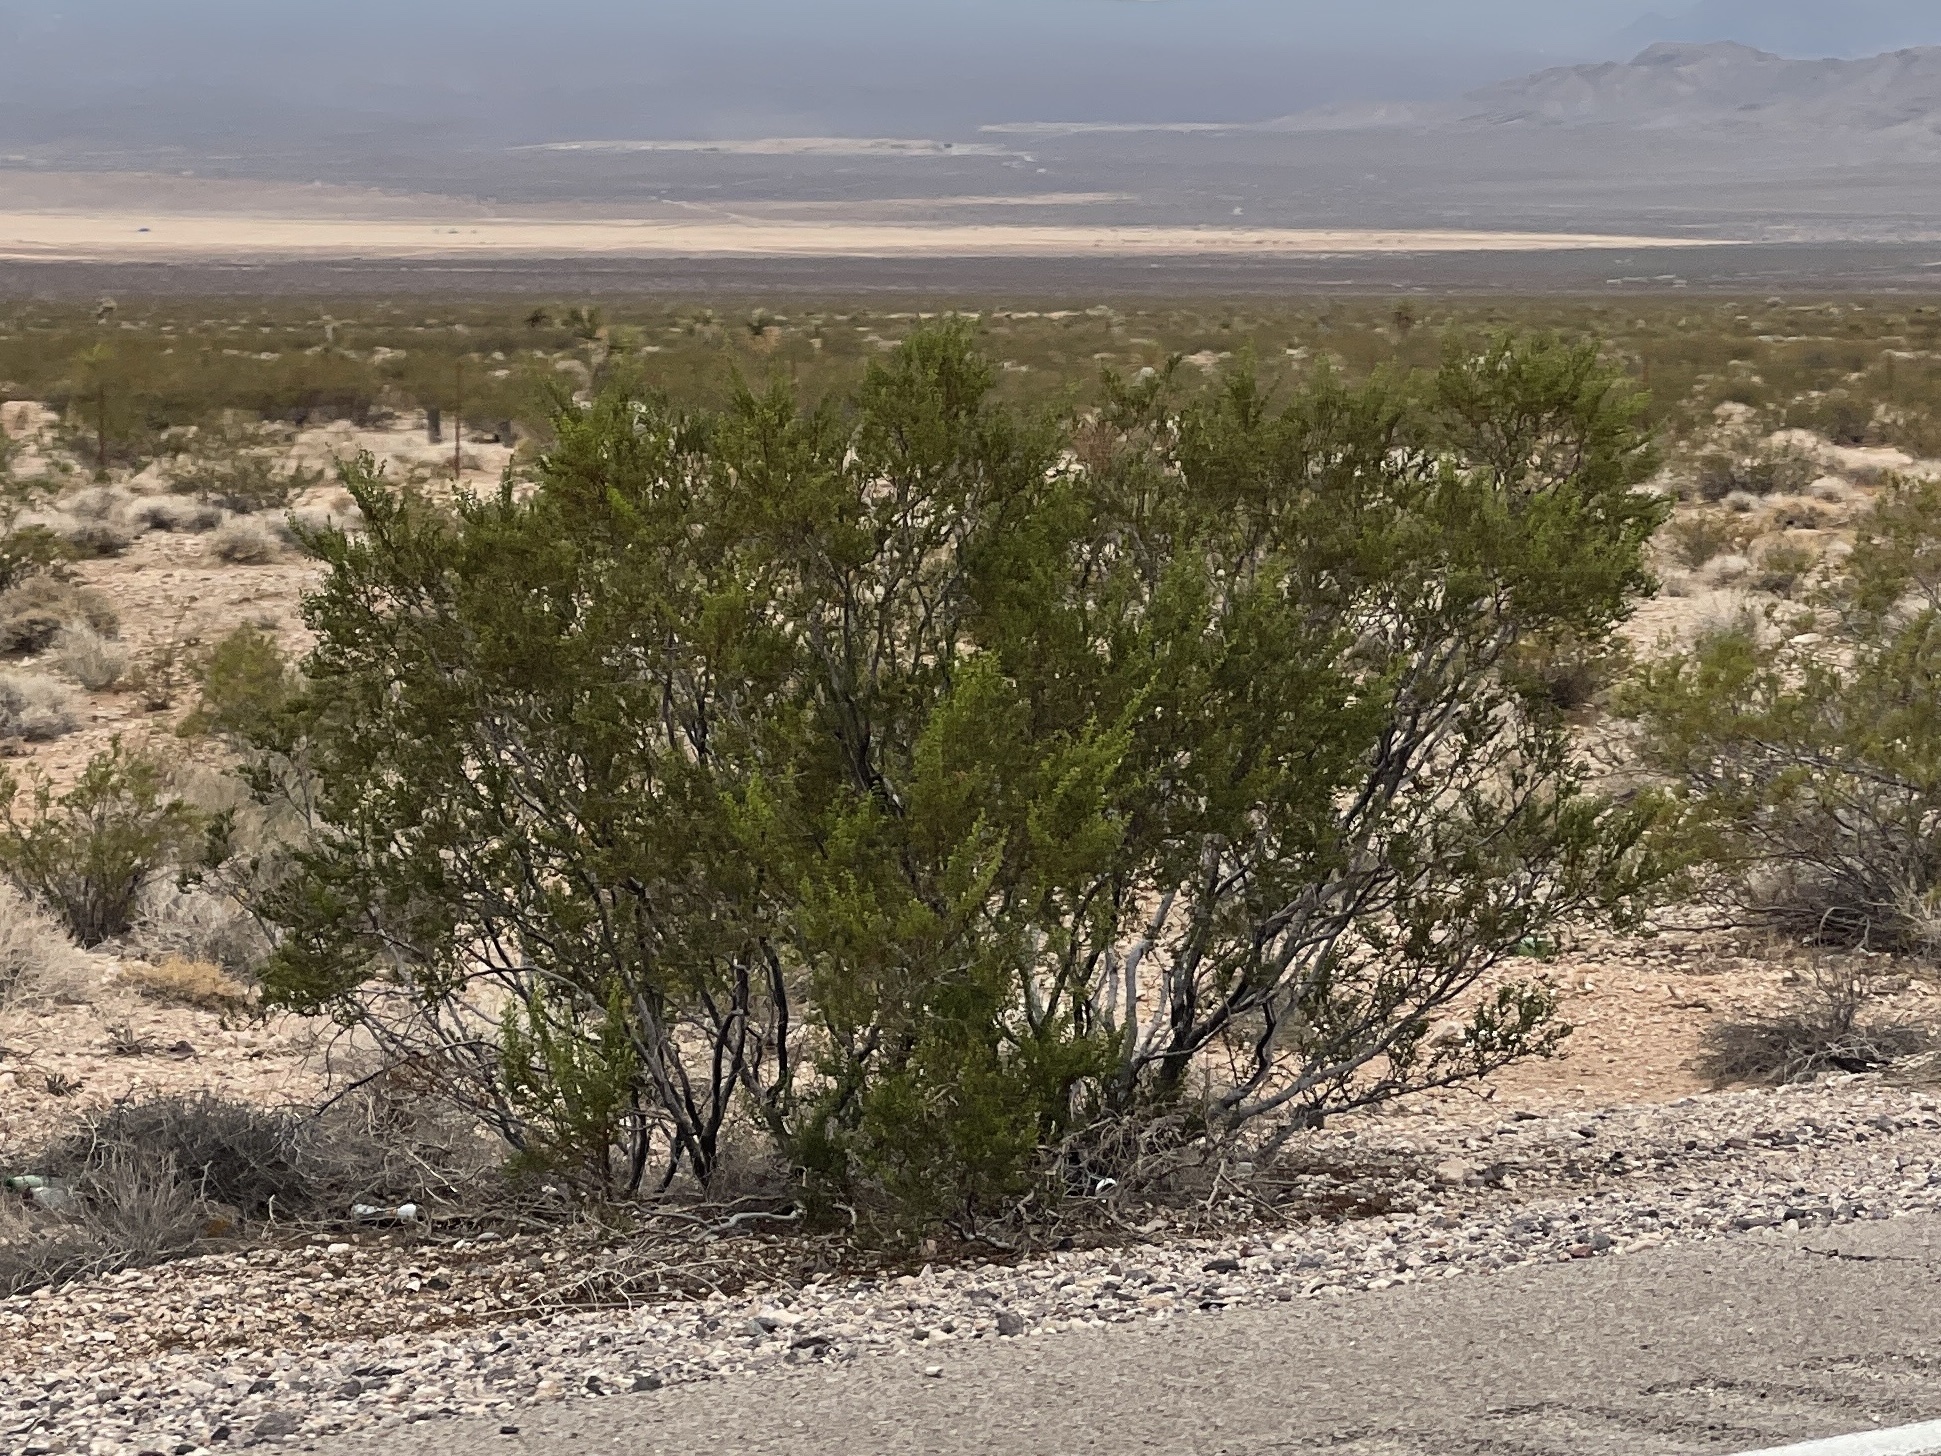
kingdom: Plantae
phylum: Tracheophyta
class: Magnoliopsida
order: Zygophyllales
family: Zygophyllaceae
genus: Larrea
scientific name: Larrea tridentata
